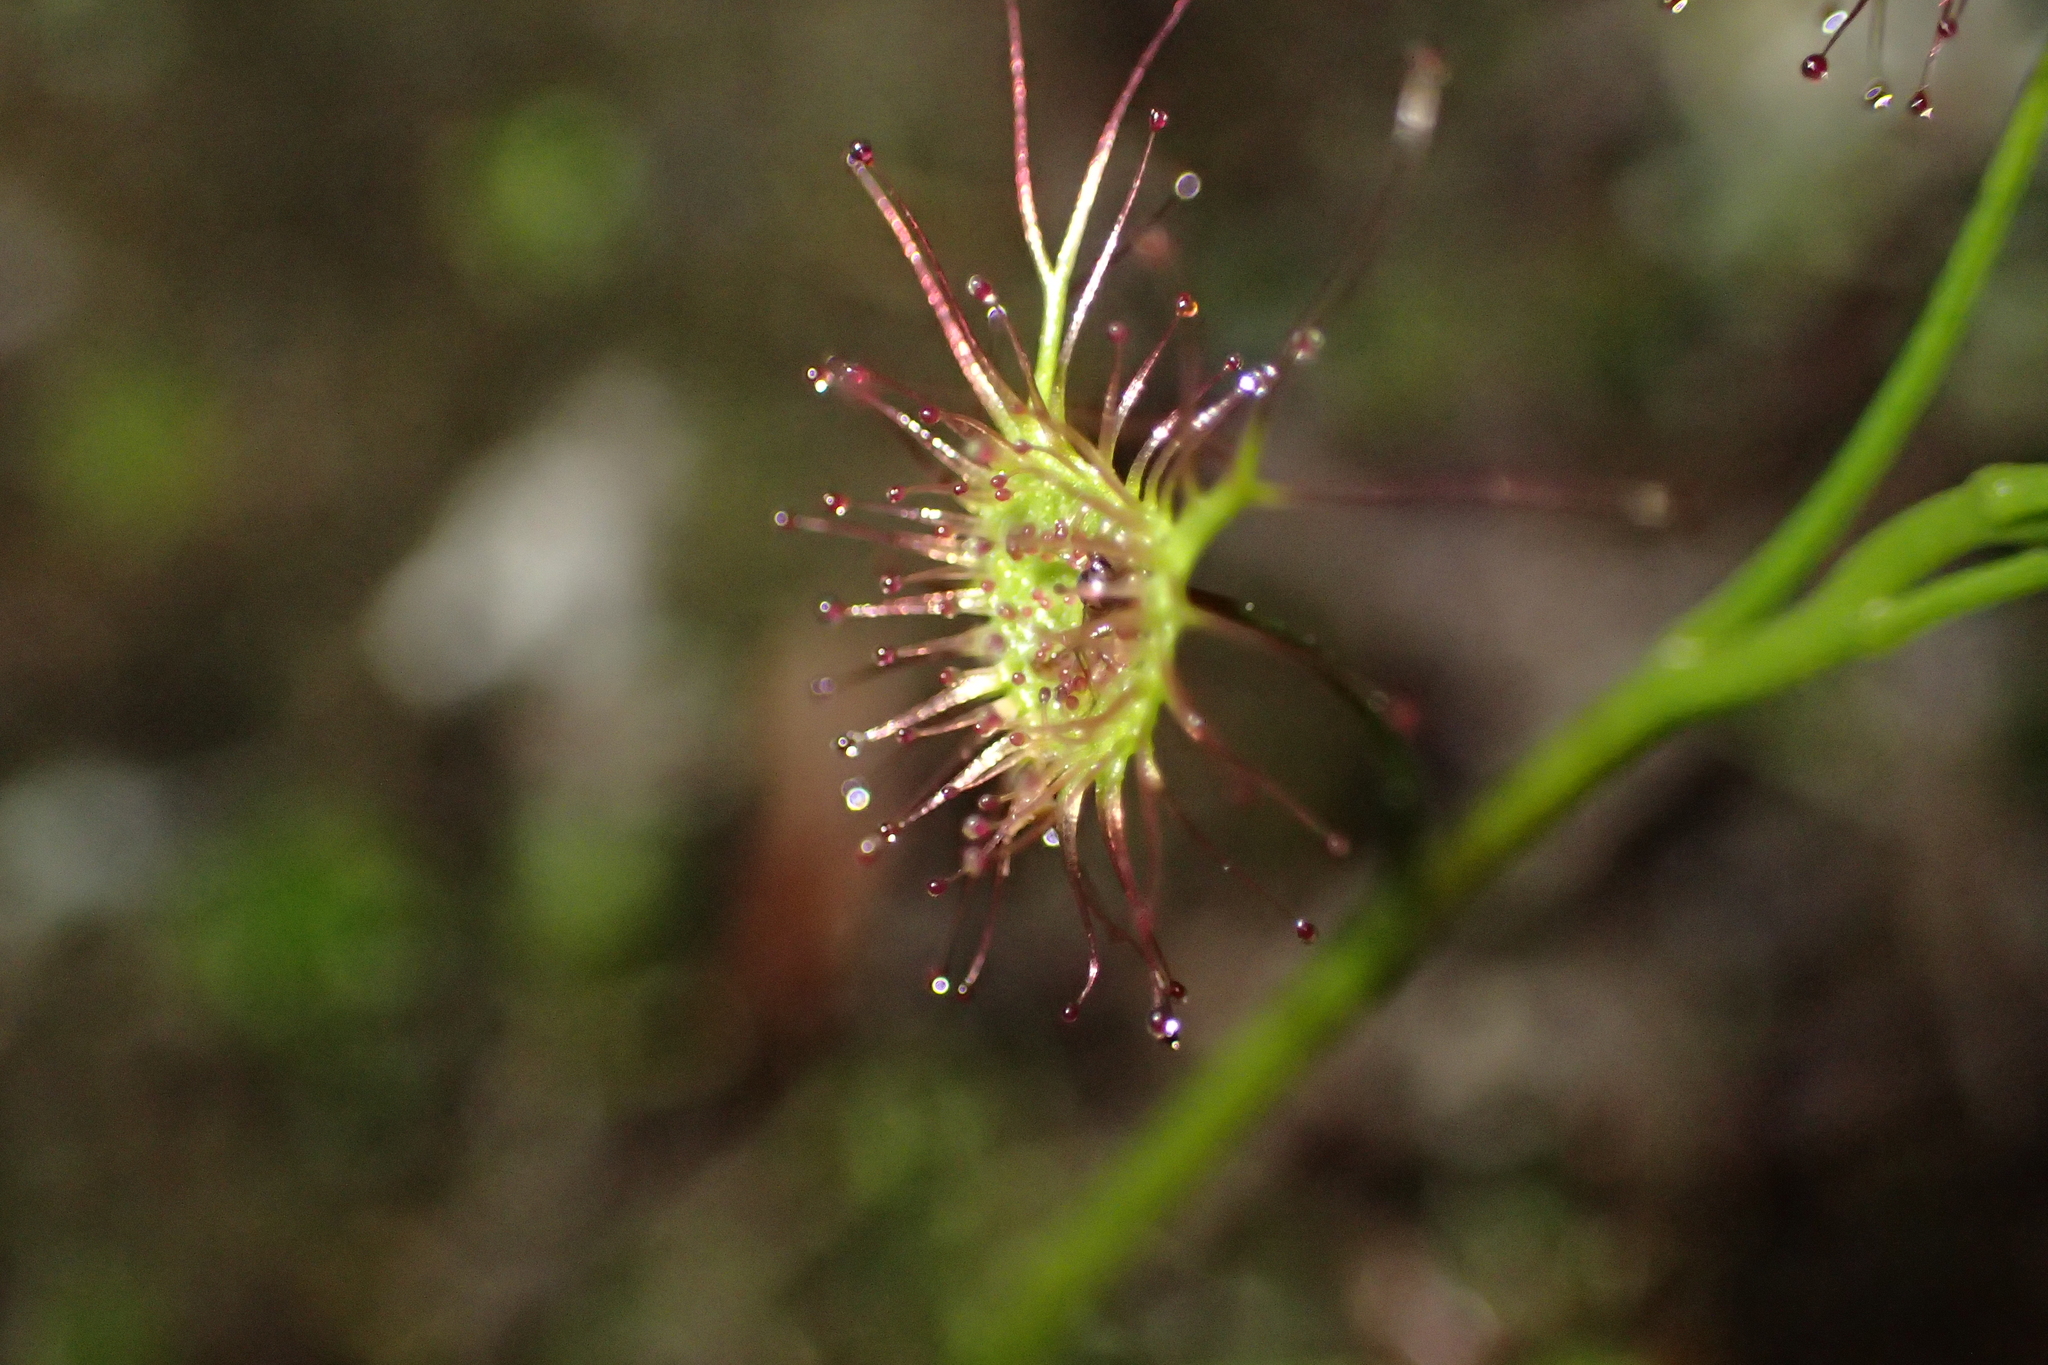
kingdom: Plantae
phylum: Tracheophyta
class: Magnoliopsida
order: Caryophyllales
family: Droseraceae
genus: Drosera
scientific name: Drosera peltata
